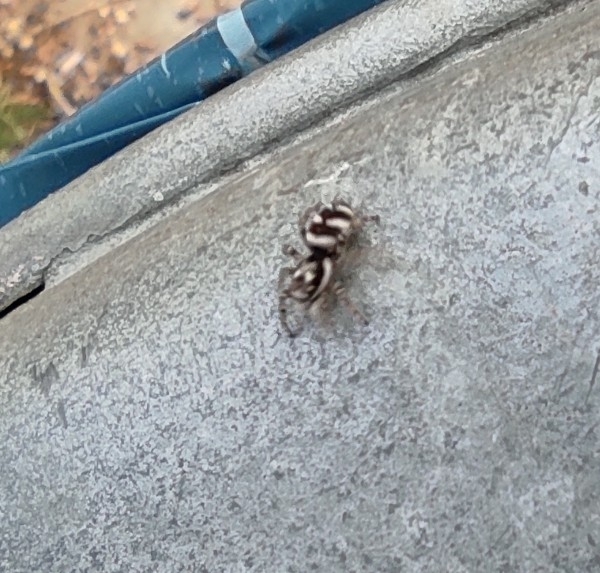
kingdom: Animalia
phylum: Arthropoda
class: Arachnida
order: Araneae
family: Salticidae
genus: Salticus
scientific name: Salticus scenicus
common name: Zebra jumper
